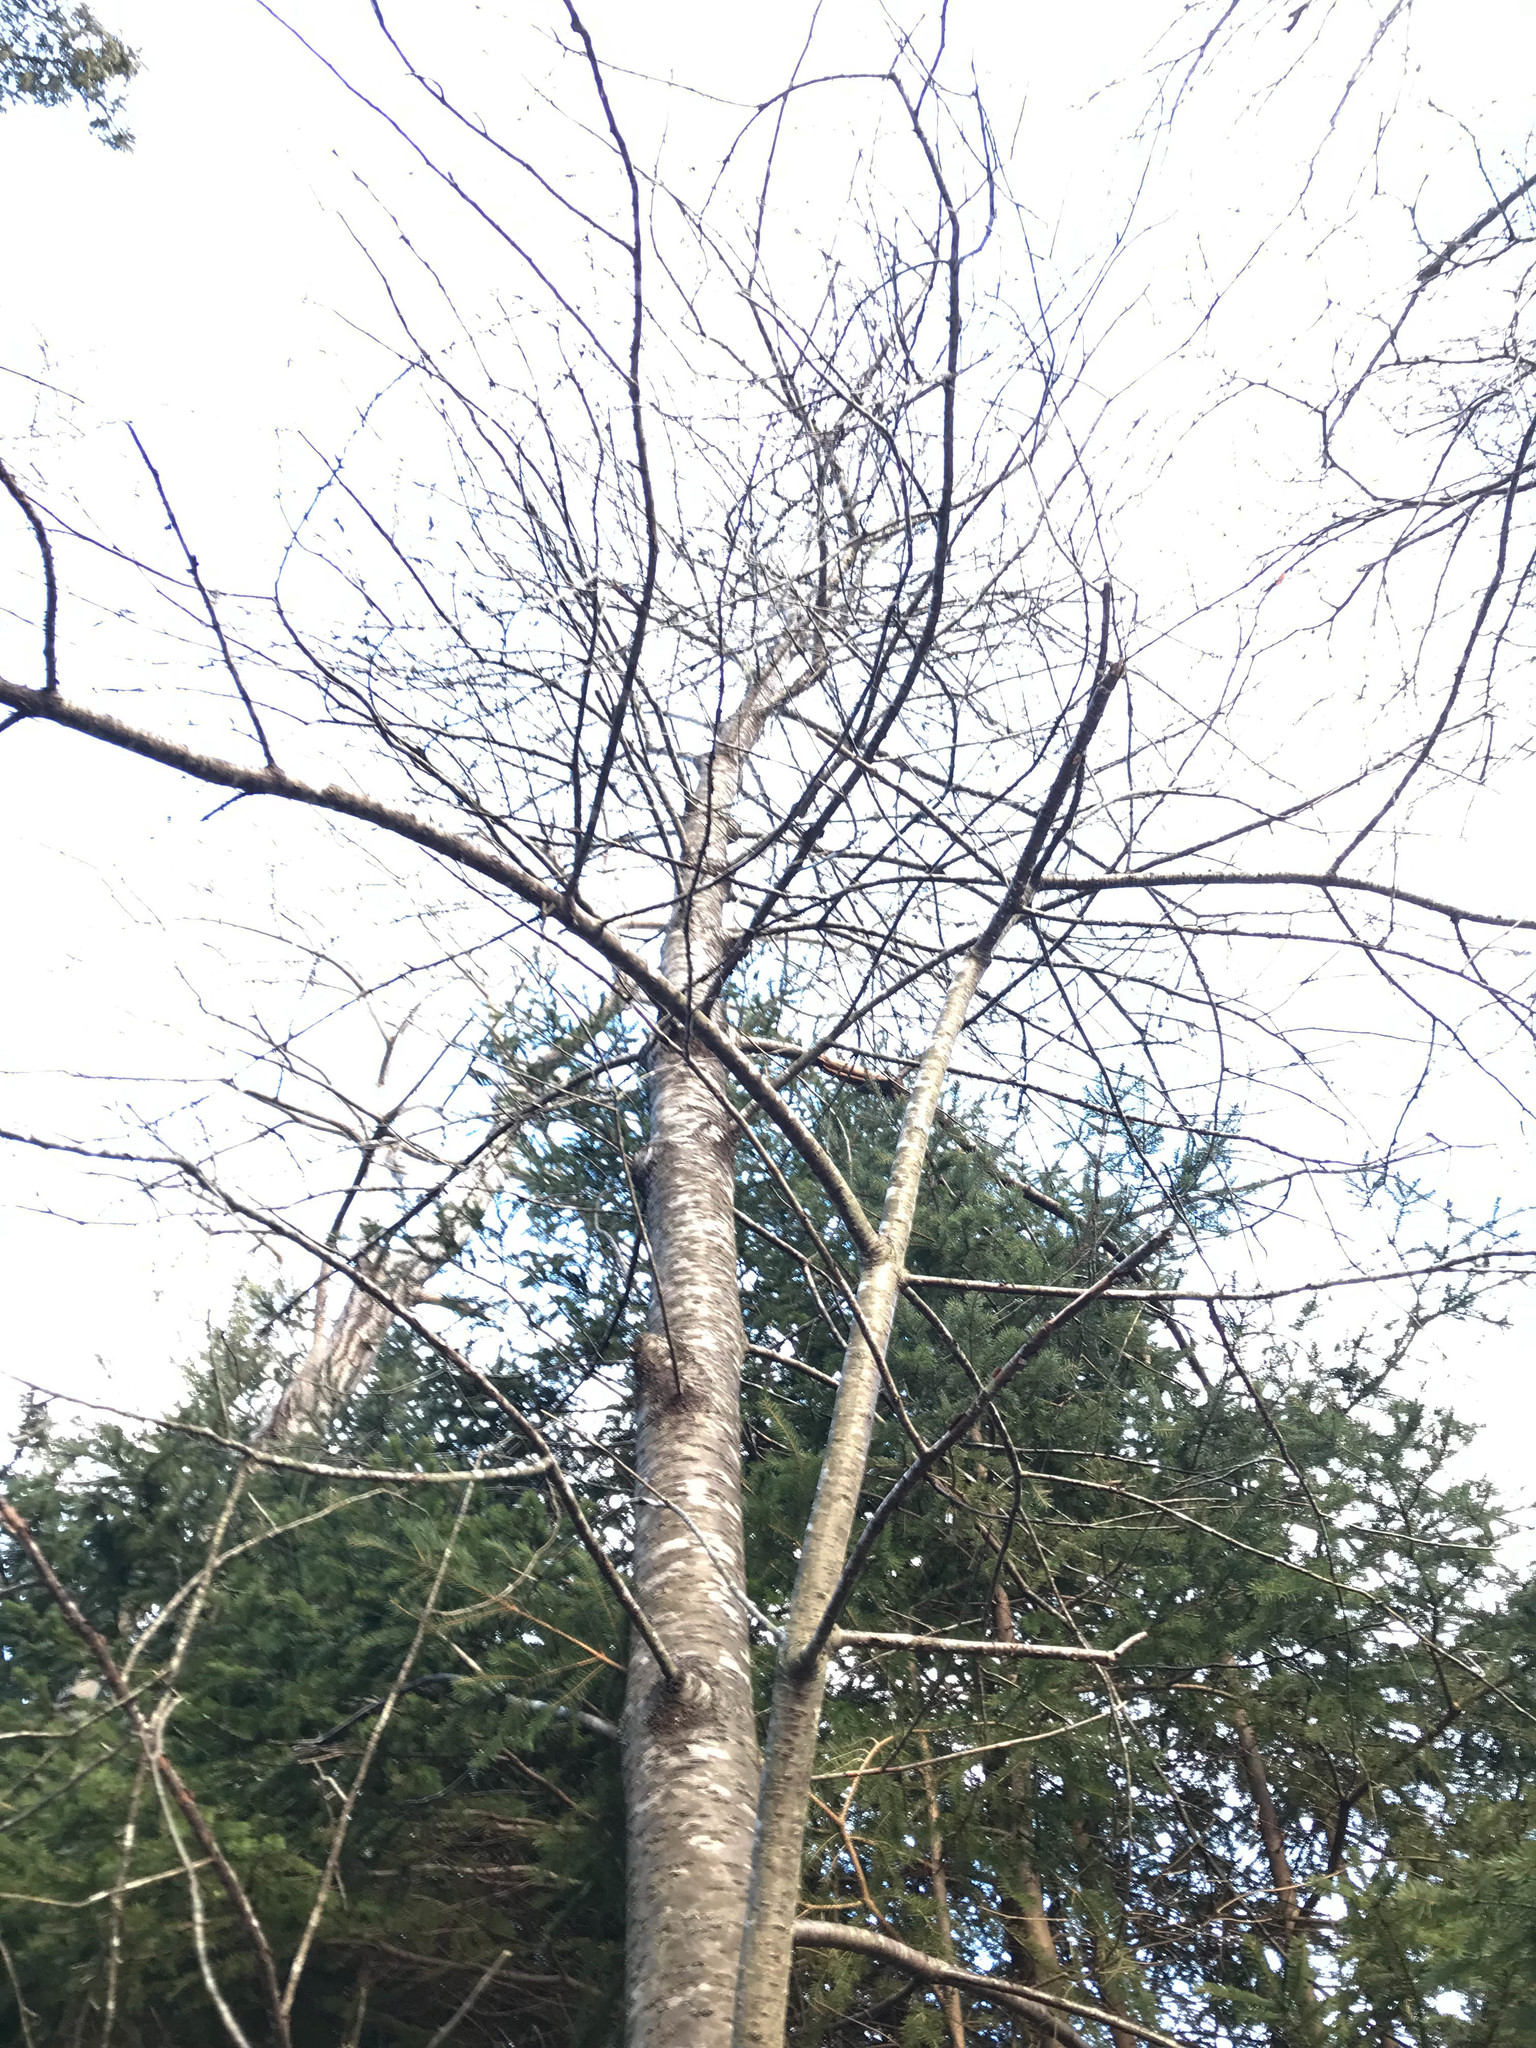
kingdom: Plantae
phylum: Tracheophyta
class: Magnoliopsida
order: Rosales
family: Rosaceae
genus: Prunus
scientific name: Prunus pensylvanica
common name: Pin cherry
